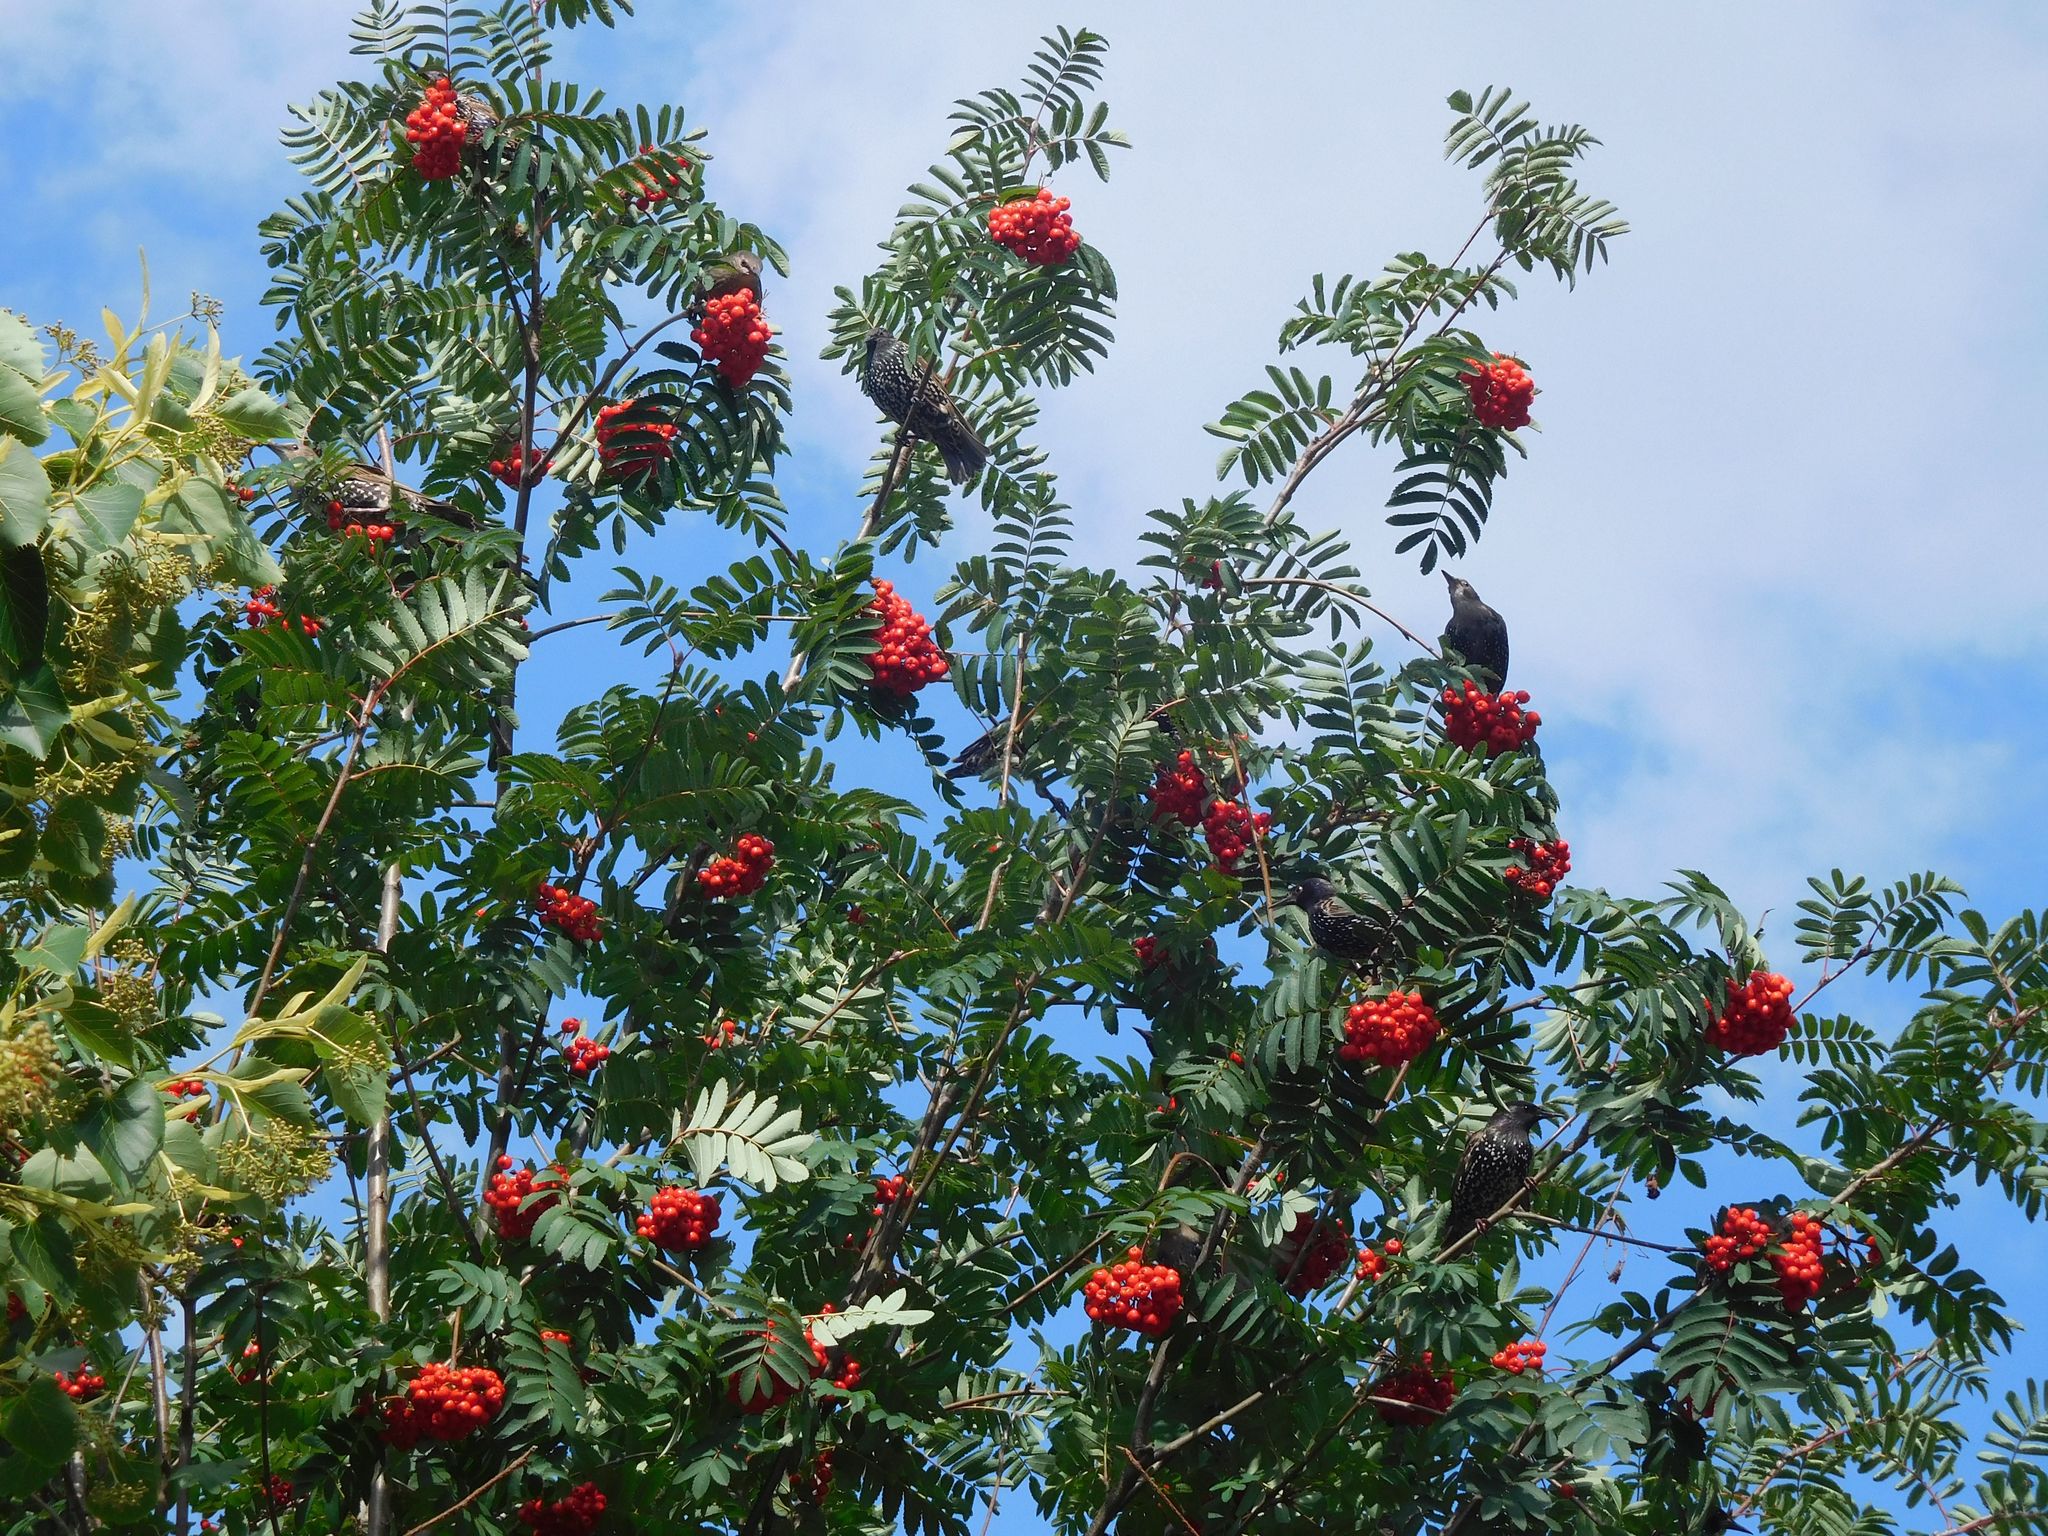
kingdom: Animalia
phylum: Chordata
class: Aves
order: Passeriformes
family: Sturnidae
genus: Sturnus
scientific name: Sturnus vulgaris
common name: Common starling
